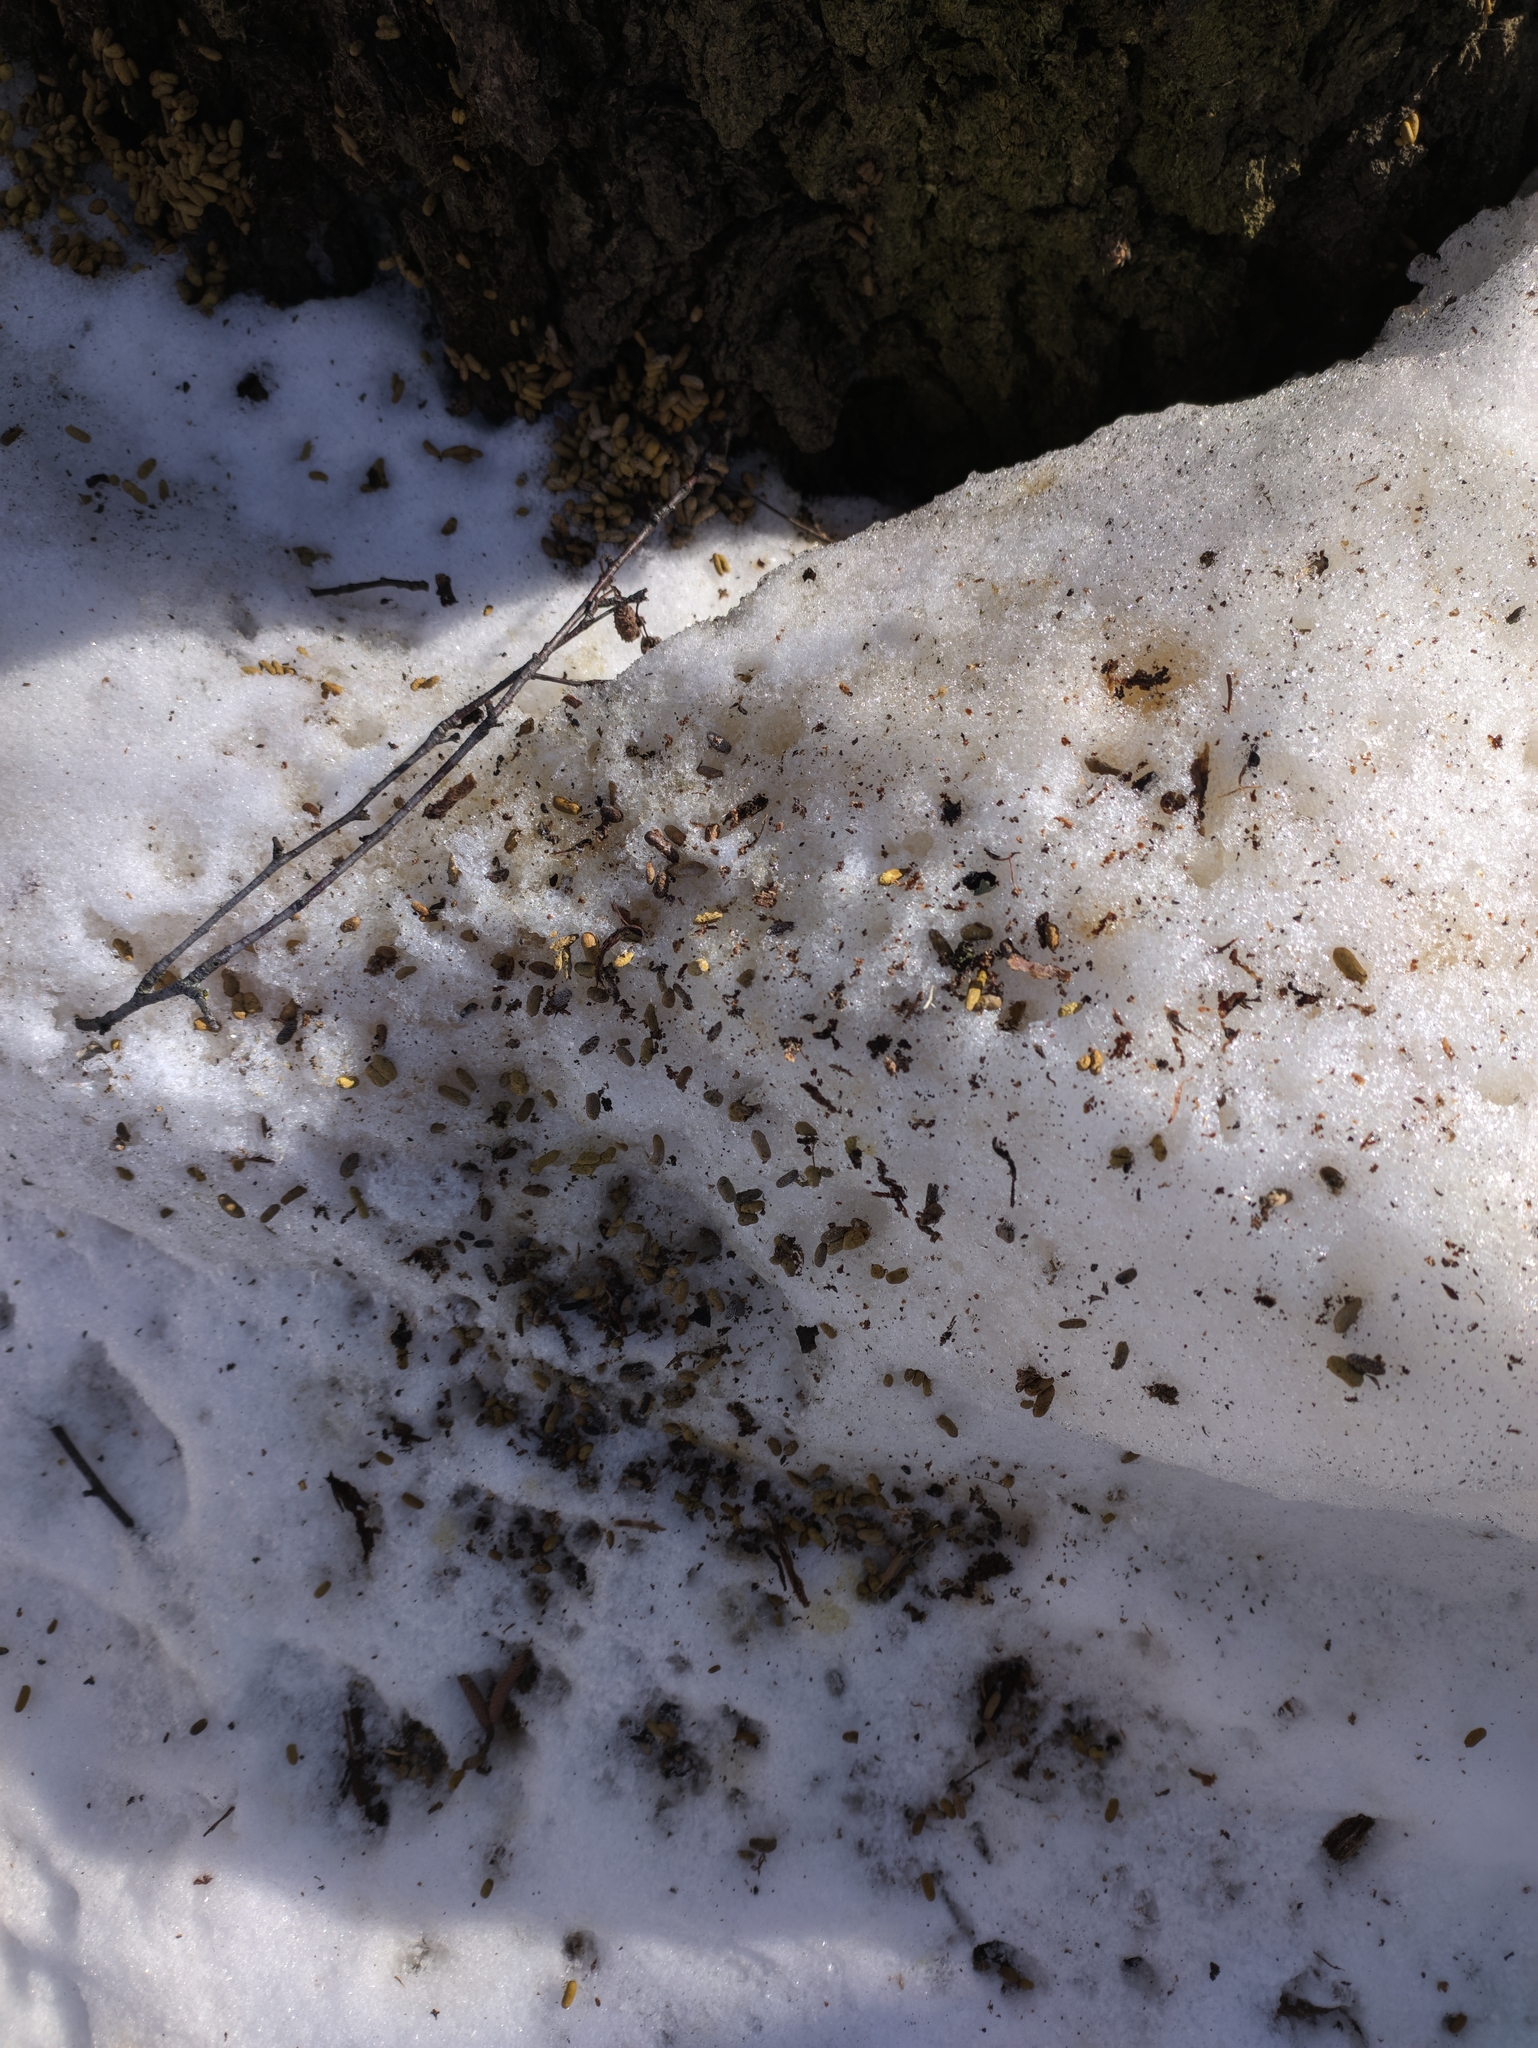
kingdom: Animalia
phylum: Chordata
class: Mammalia
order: Rodentia
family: Sciuridae
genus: Pteromys
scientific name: Pteromys volans
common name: Siberian flying squirrel
